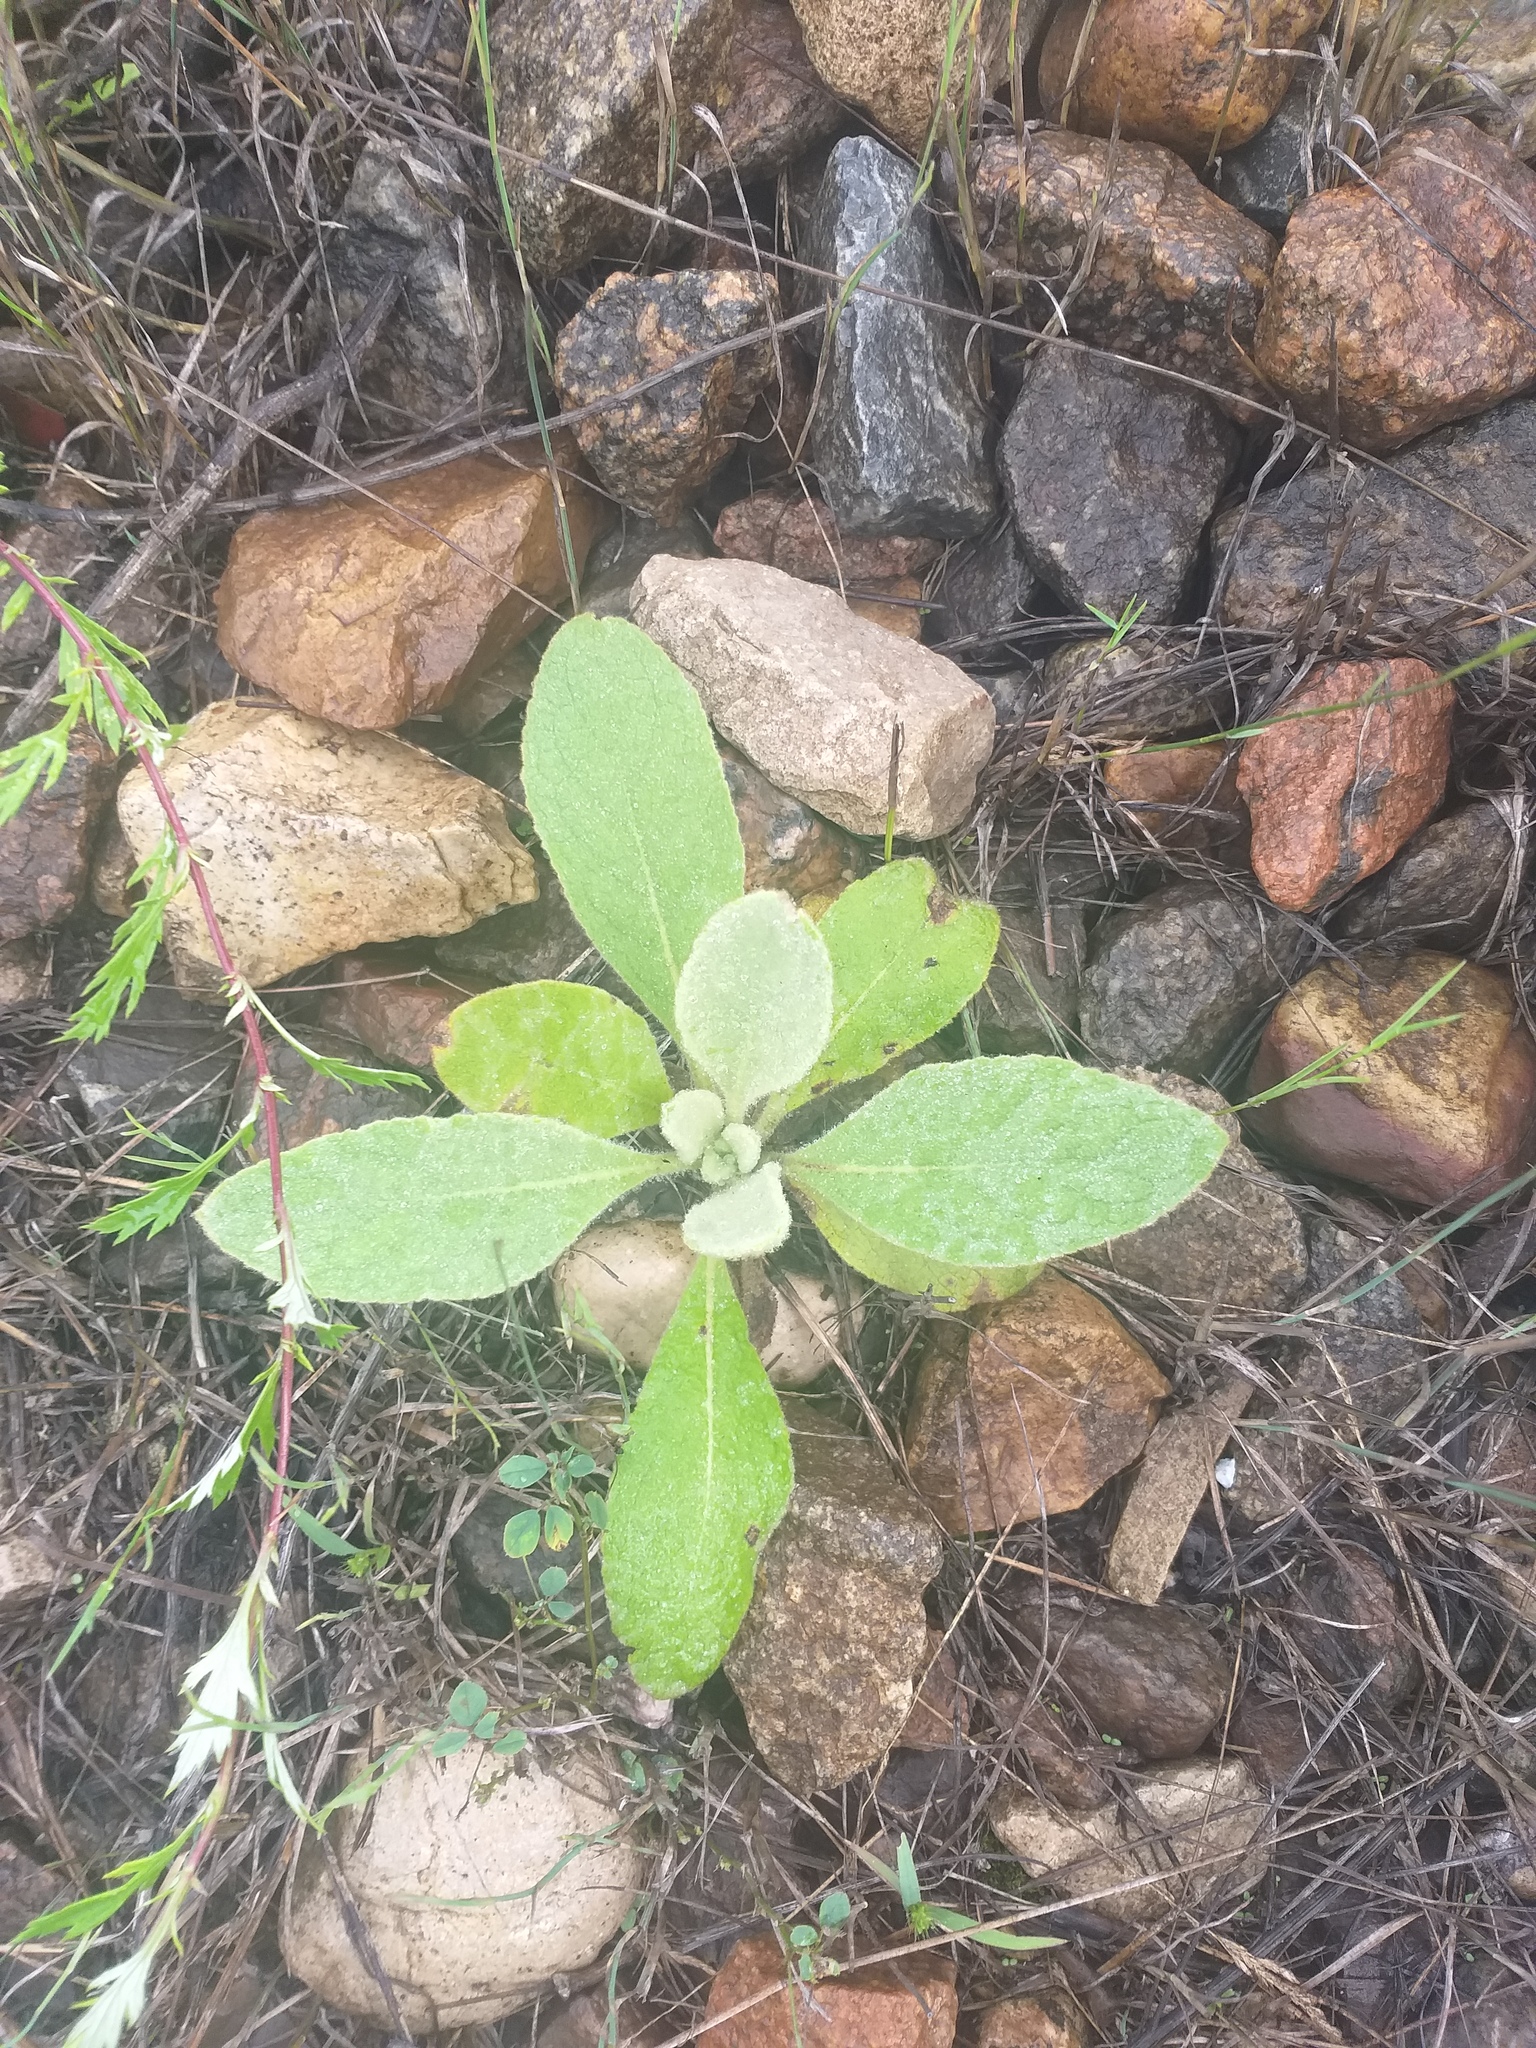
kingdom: Plantae
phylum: Tracheophyta
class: Magnoliopsida
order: Lamiales
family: Scrophulariaceae
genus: Verbascum
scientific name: Verbascum thapsus
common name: Common mullein
